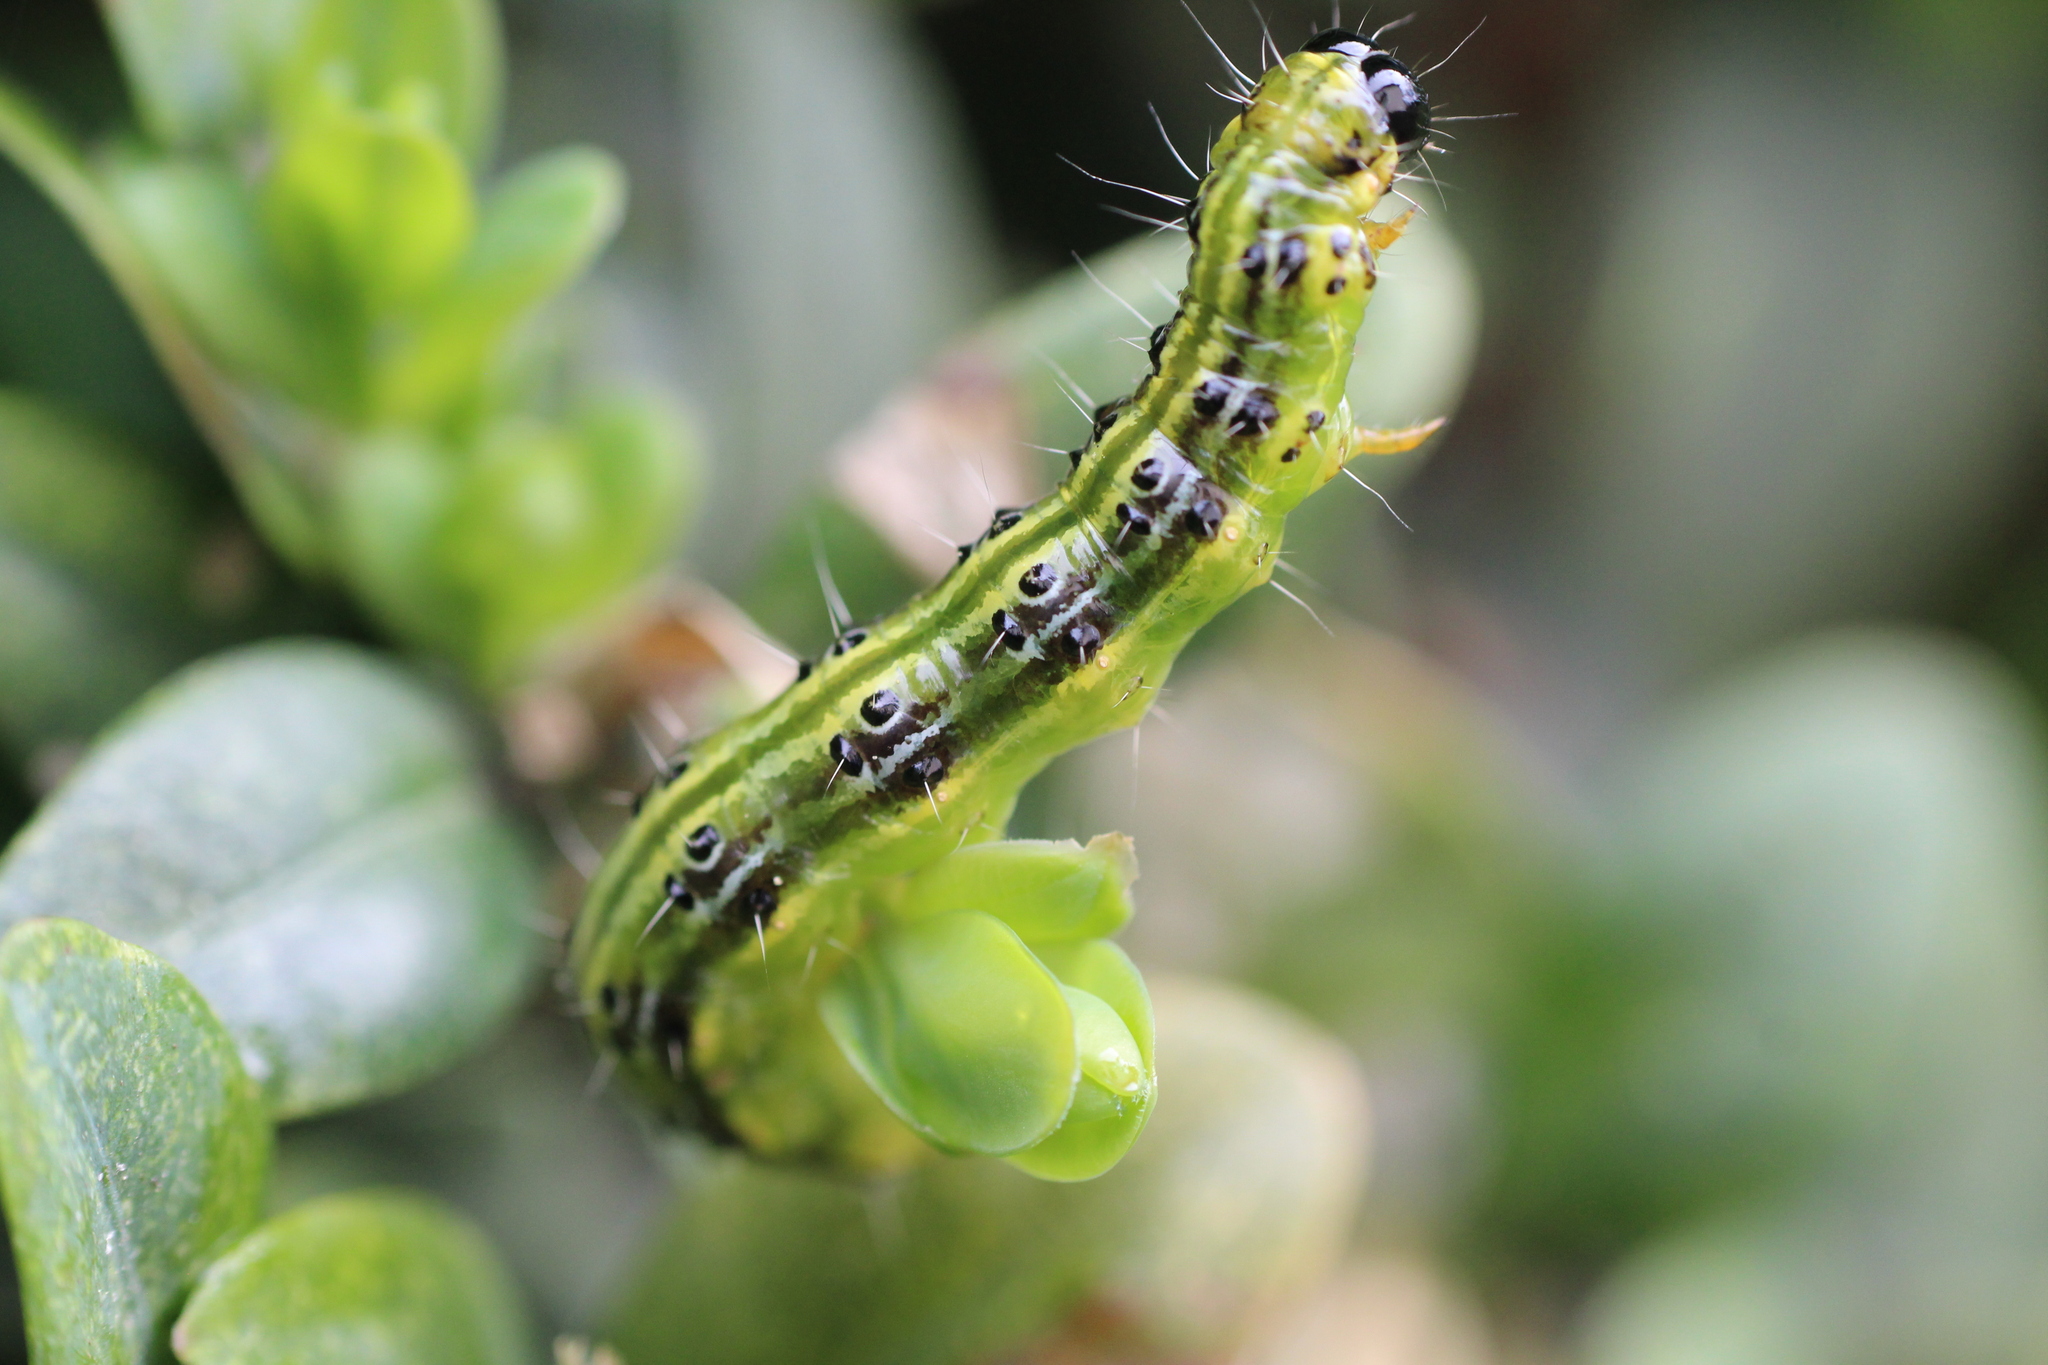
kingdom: Animalia
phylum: Arthropoda
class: Insecta
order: Lepidoptera
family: Crambidae
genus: Cydalima
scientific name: Cydalima perspectalis
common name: Box tree moth
